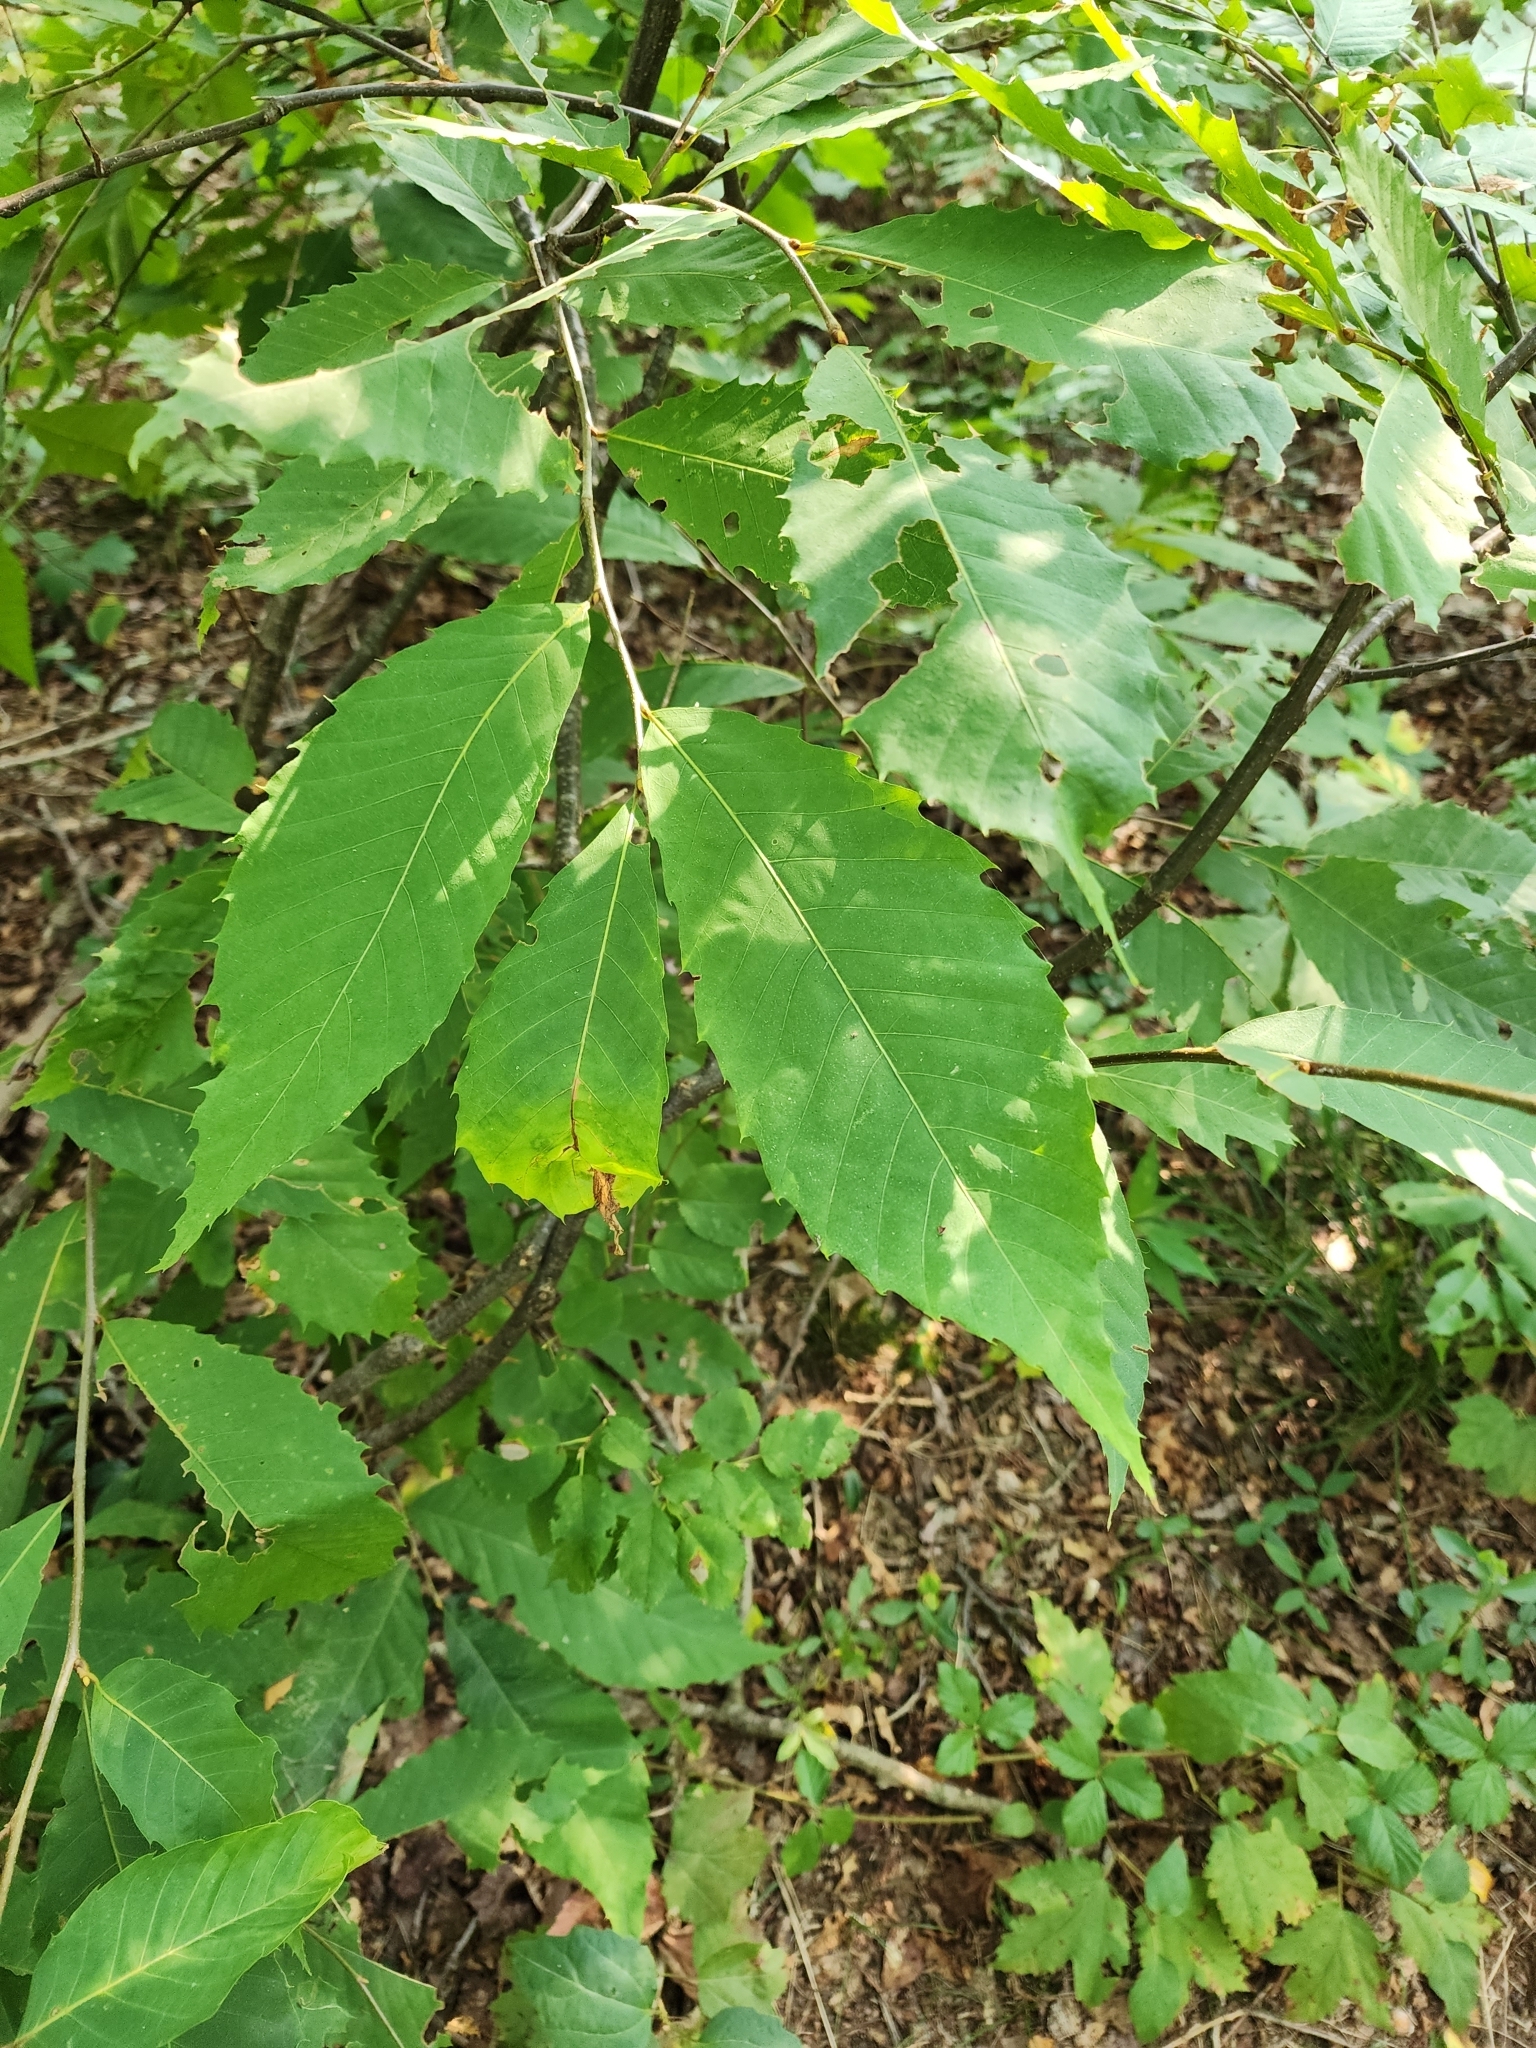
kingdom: Plantae
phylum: Tracheophyta
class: Magnoliopsida
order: Fagales
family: Fagaceae
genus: Castanea
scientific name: Castanea dentata
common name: American chestnut
